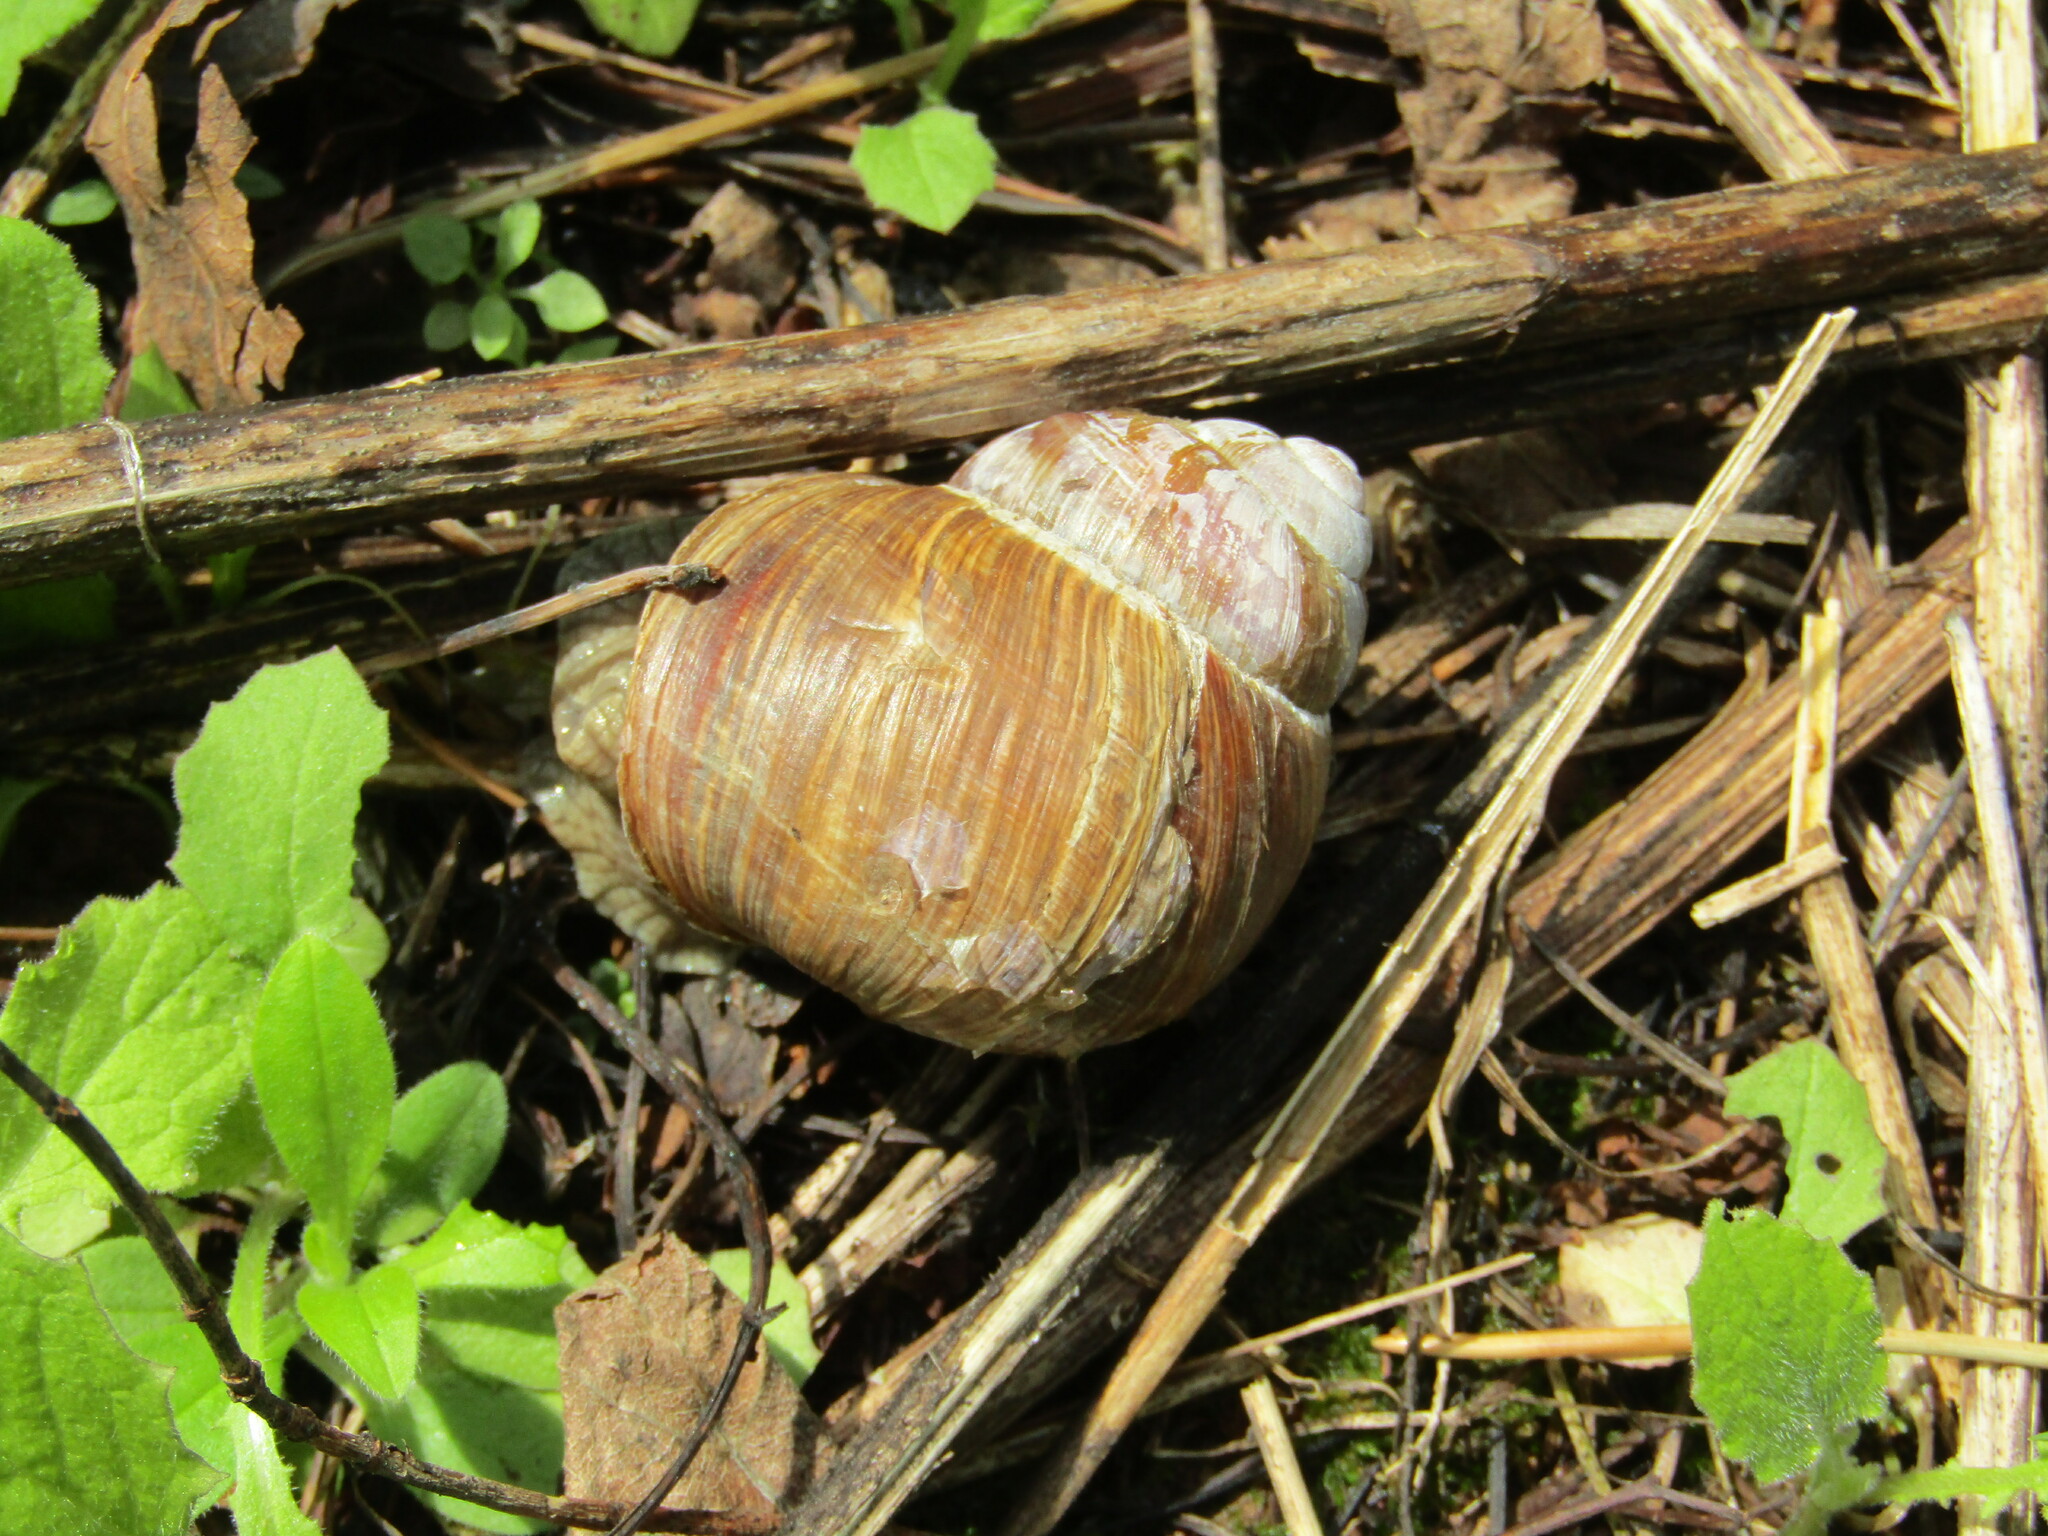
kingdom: Animalia
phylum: Mollusca
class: Gastropoda
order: Stylommatophora
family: Helicidae
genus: Helix
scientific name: Helix pomatia
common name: Roman snail
